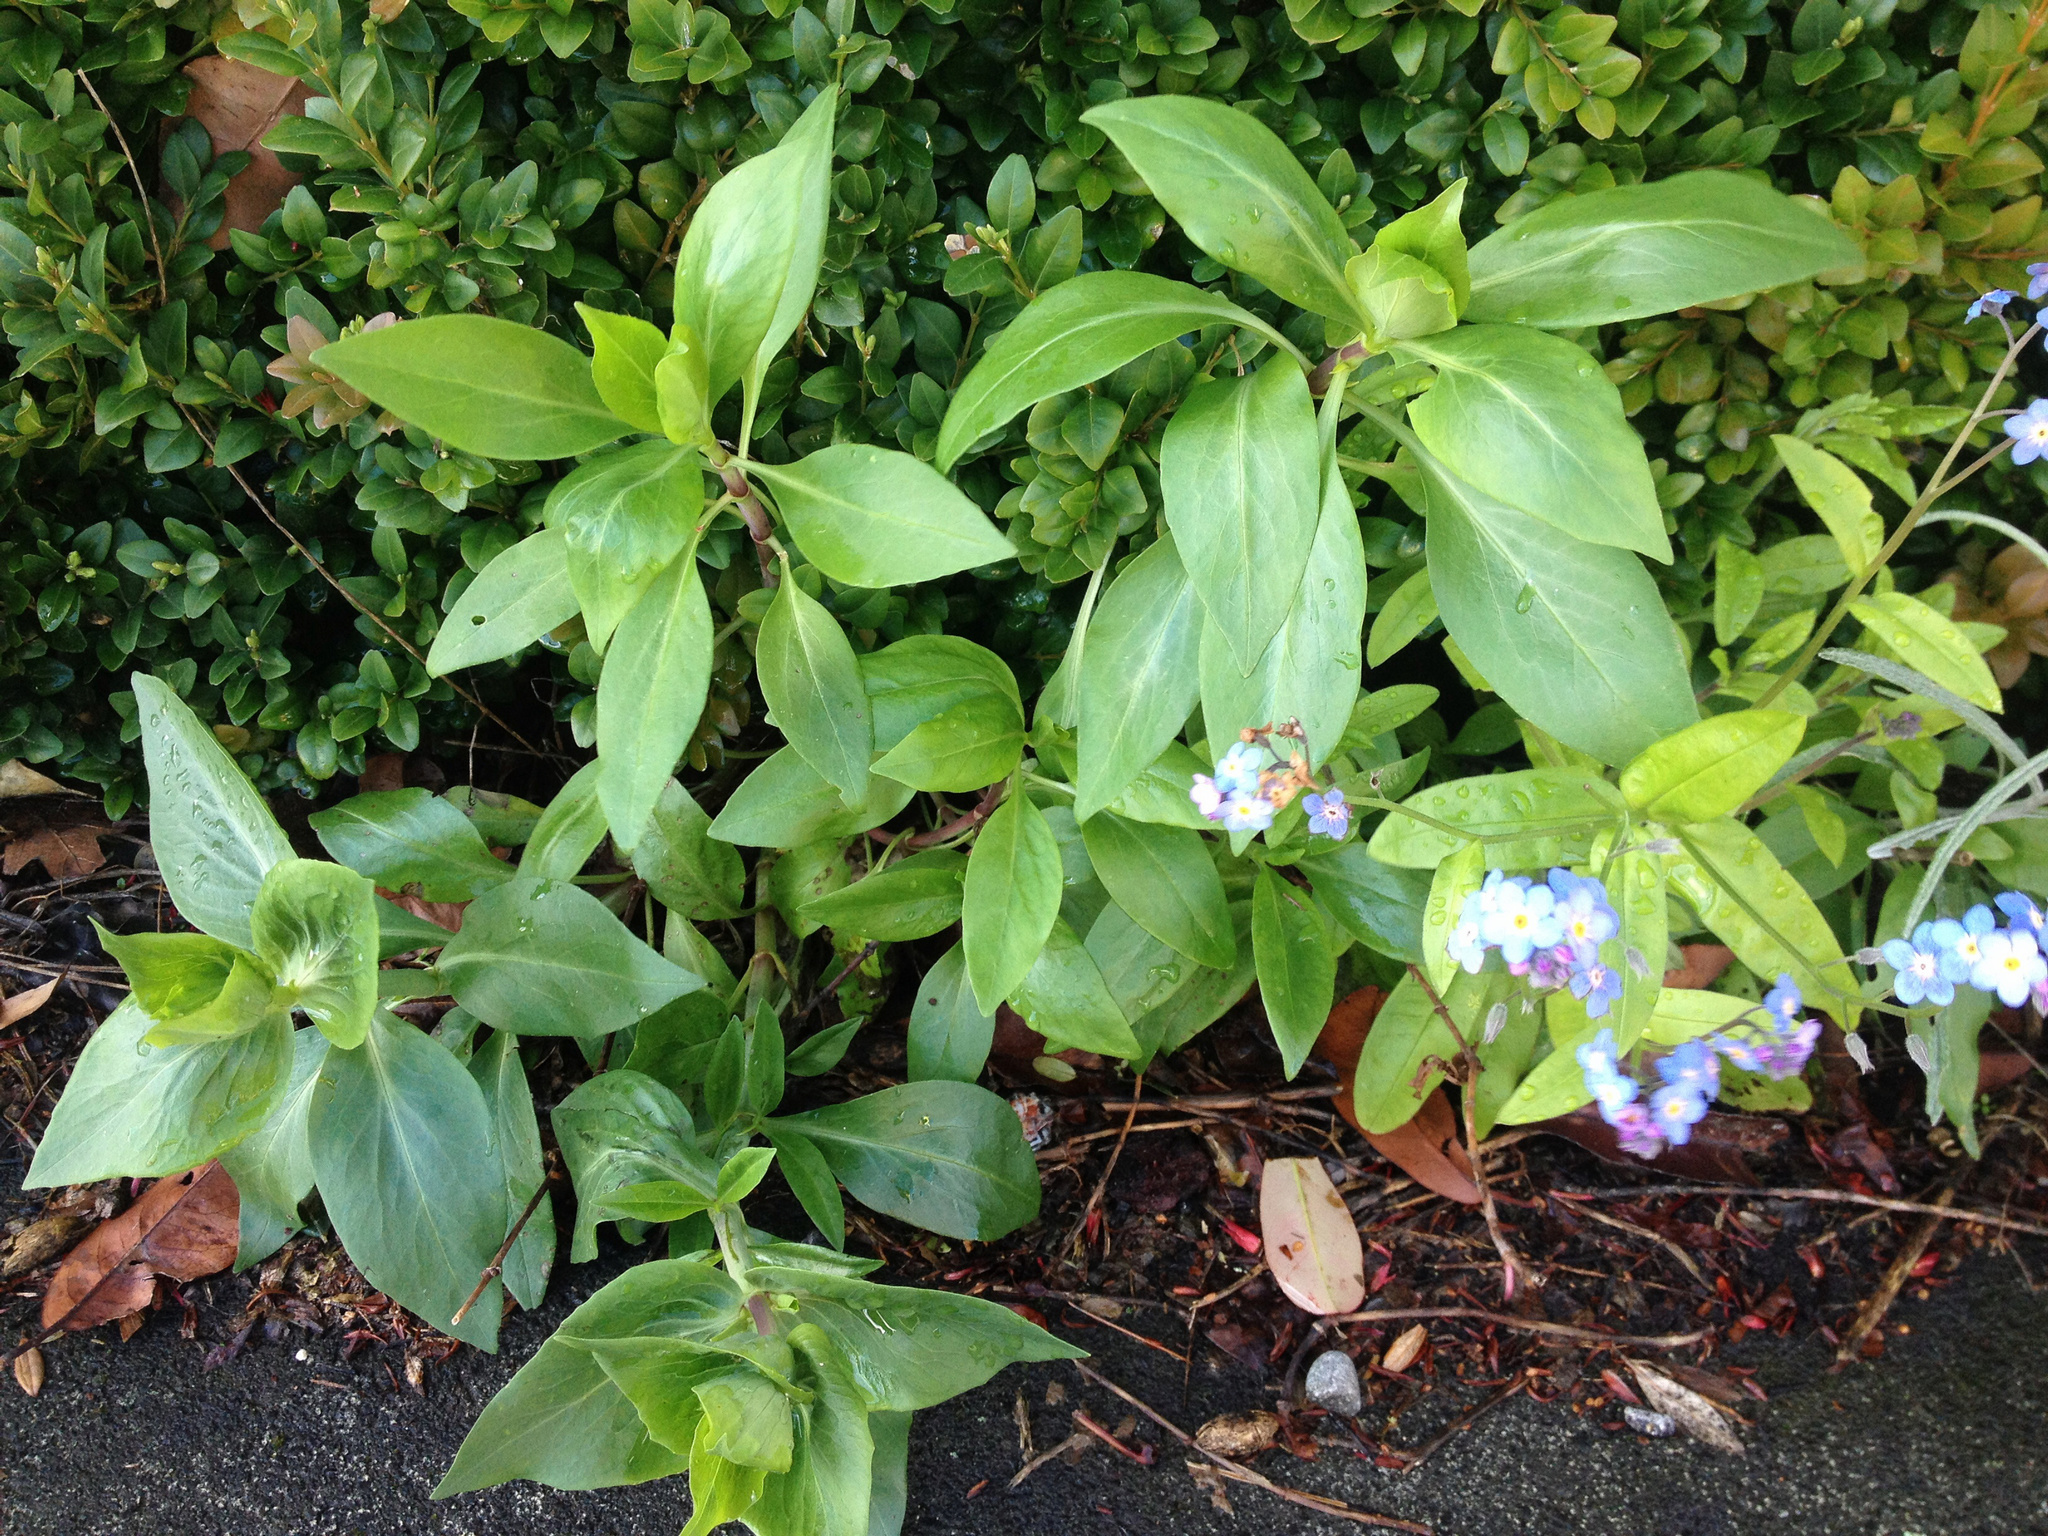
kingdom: Plantae
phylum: Tracheophyta
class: Magnoliopsida
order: Dipsacales
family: Caprifoliaceae
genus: Centranthus
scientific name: Centranthus ruber
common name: Red valerian
